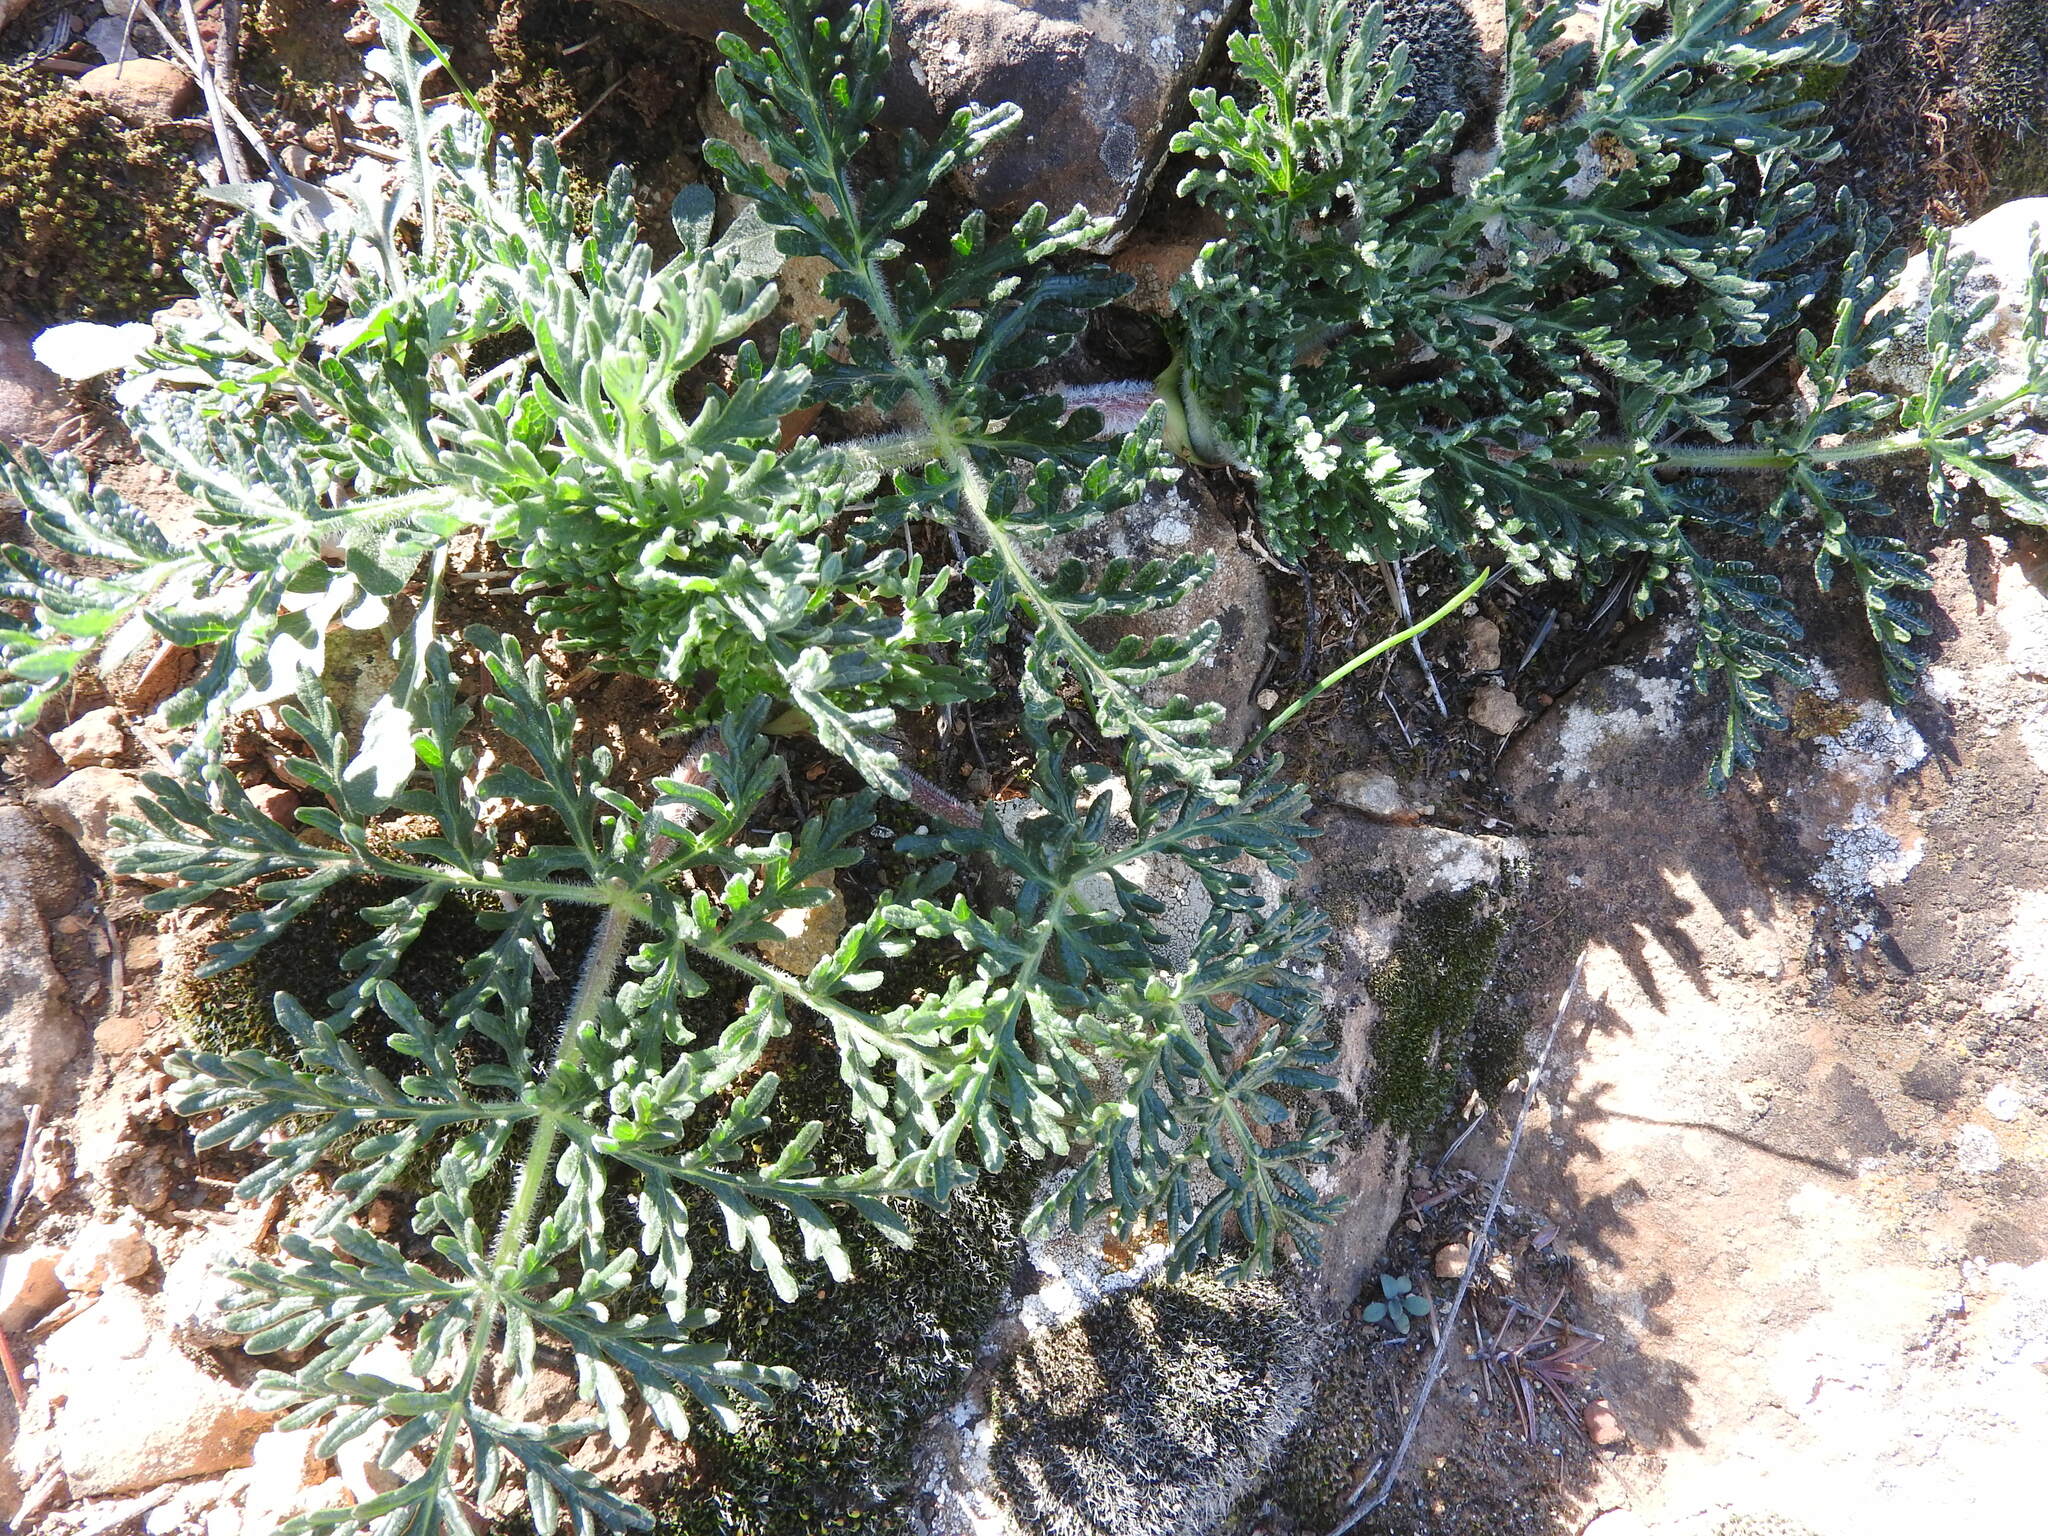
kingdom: Plantae
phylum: Tracheophyta
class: Magnoliopsida
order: Apiales
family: Apiaceae
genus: Thapsia
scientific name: Thapsia villosa
